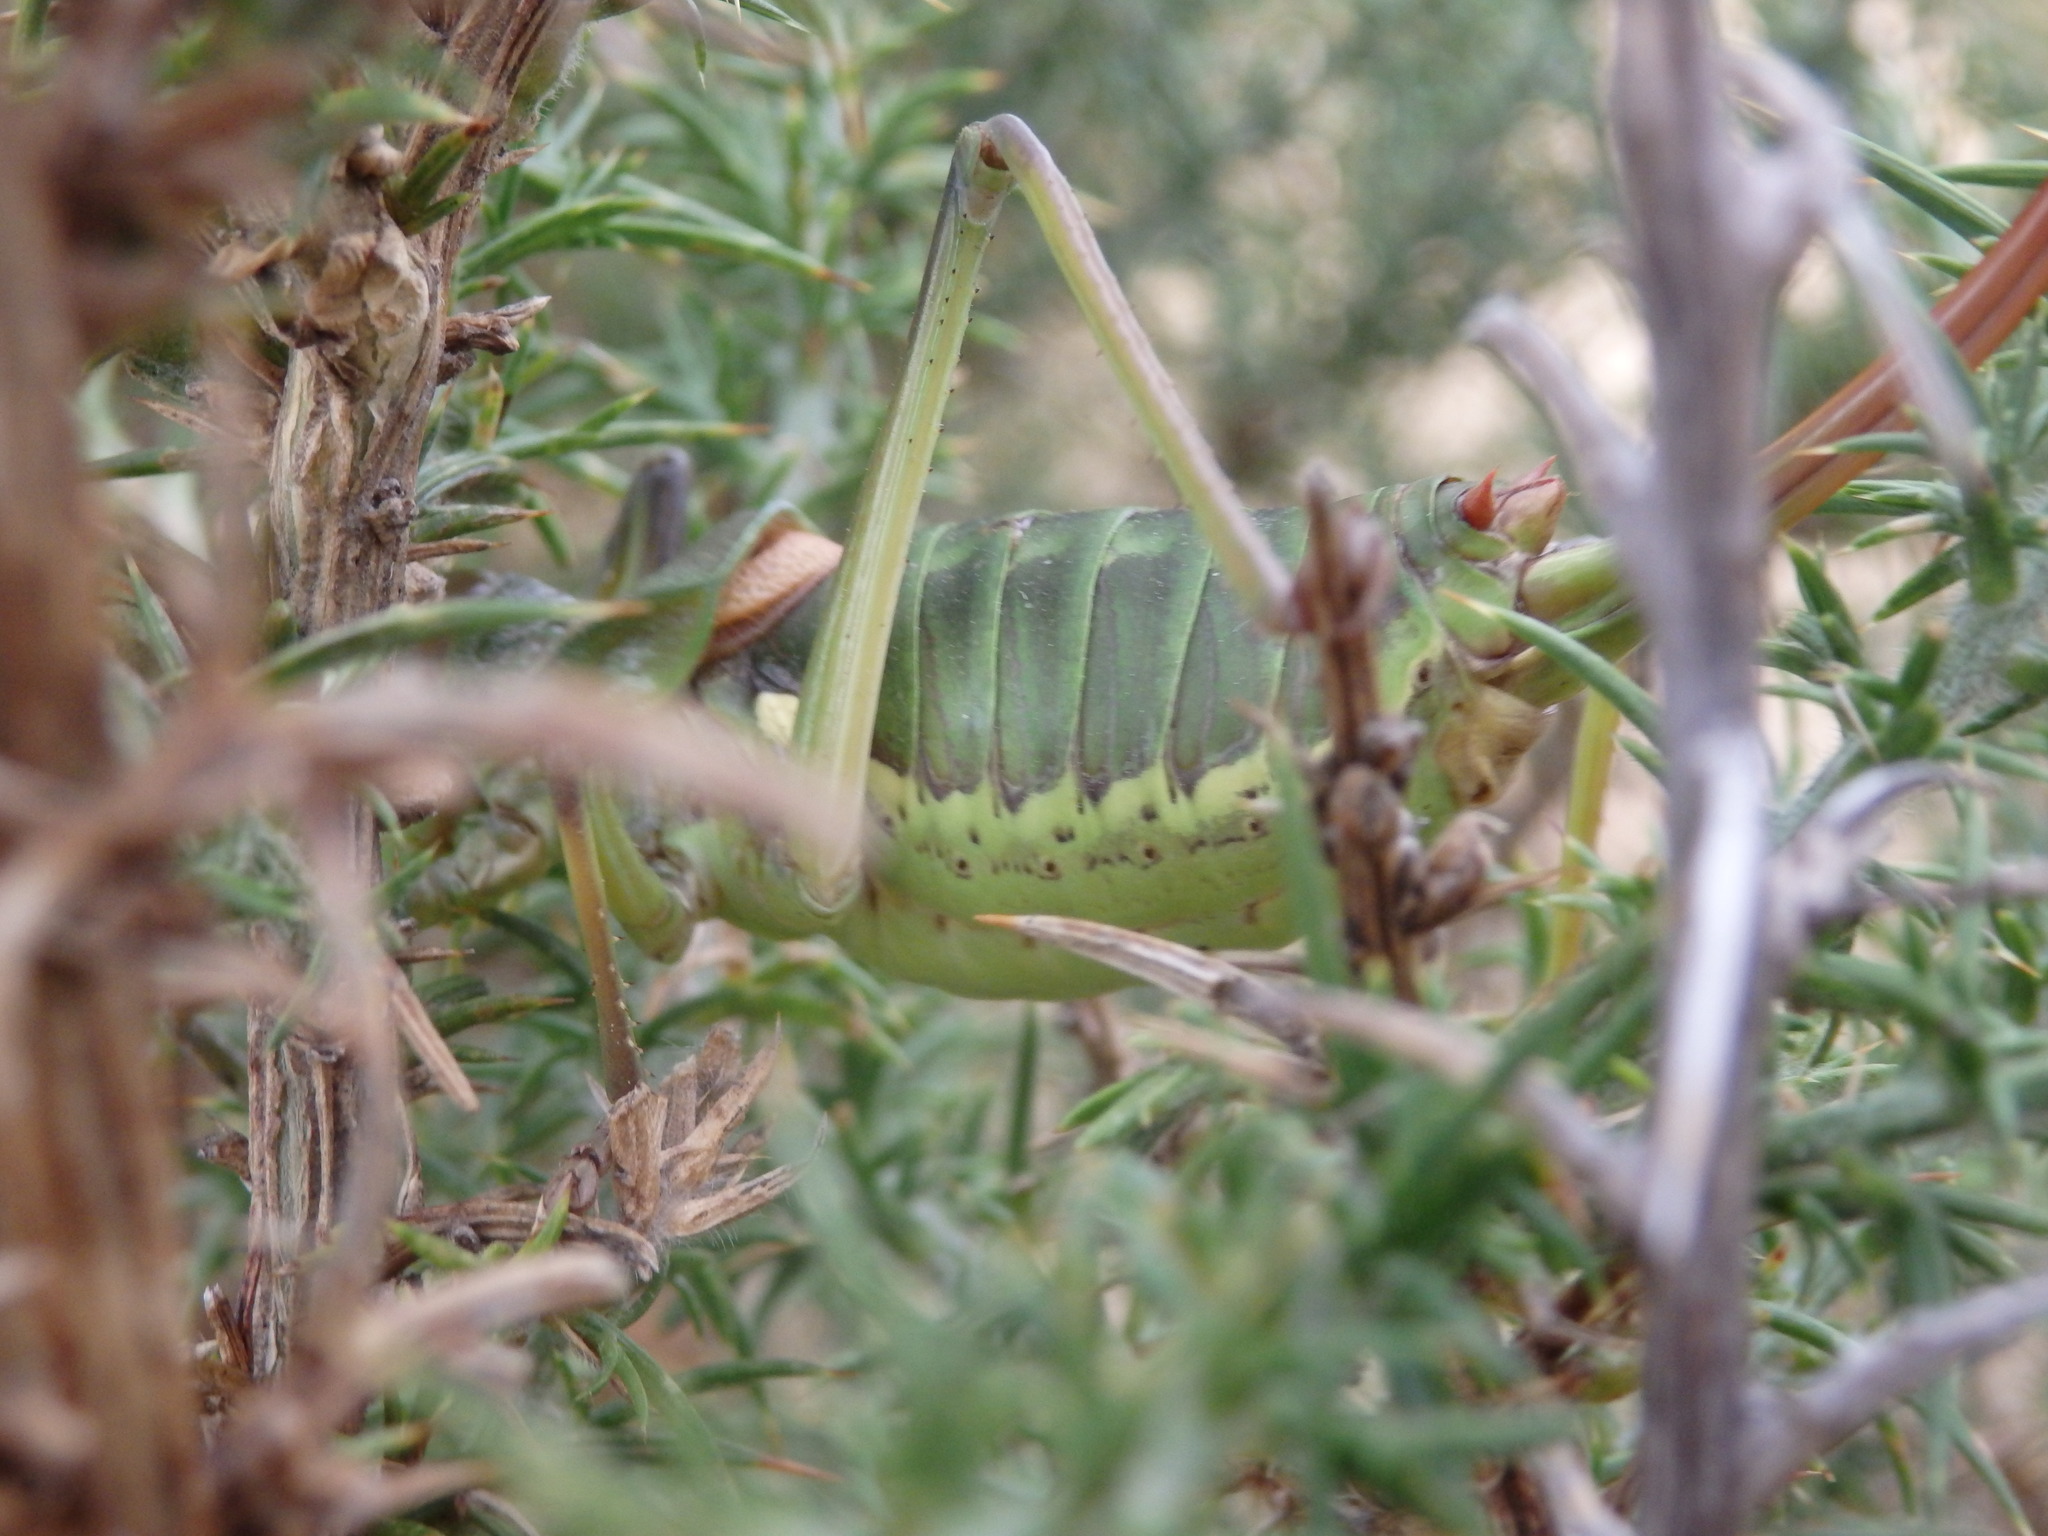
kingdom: Animalia
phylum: Arthropoda
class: Insecta
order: Orthoptera
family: Tettigoniidae
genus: Neocallicrania
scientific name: Neocallicrania selligera
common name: Lusitanian saddle bush-cricket
